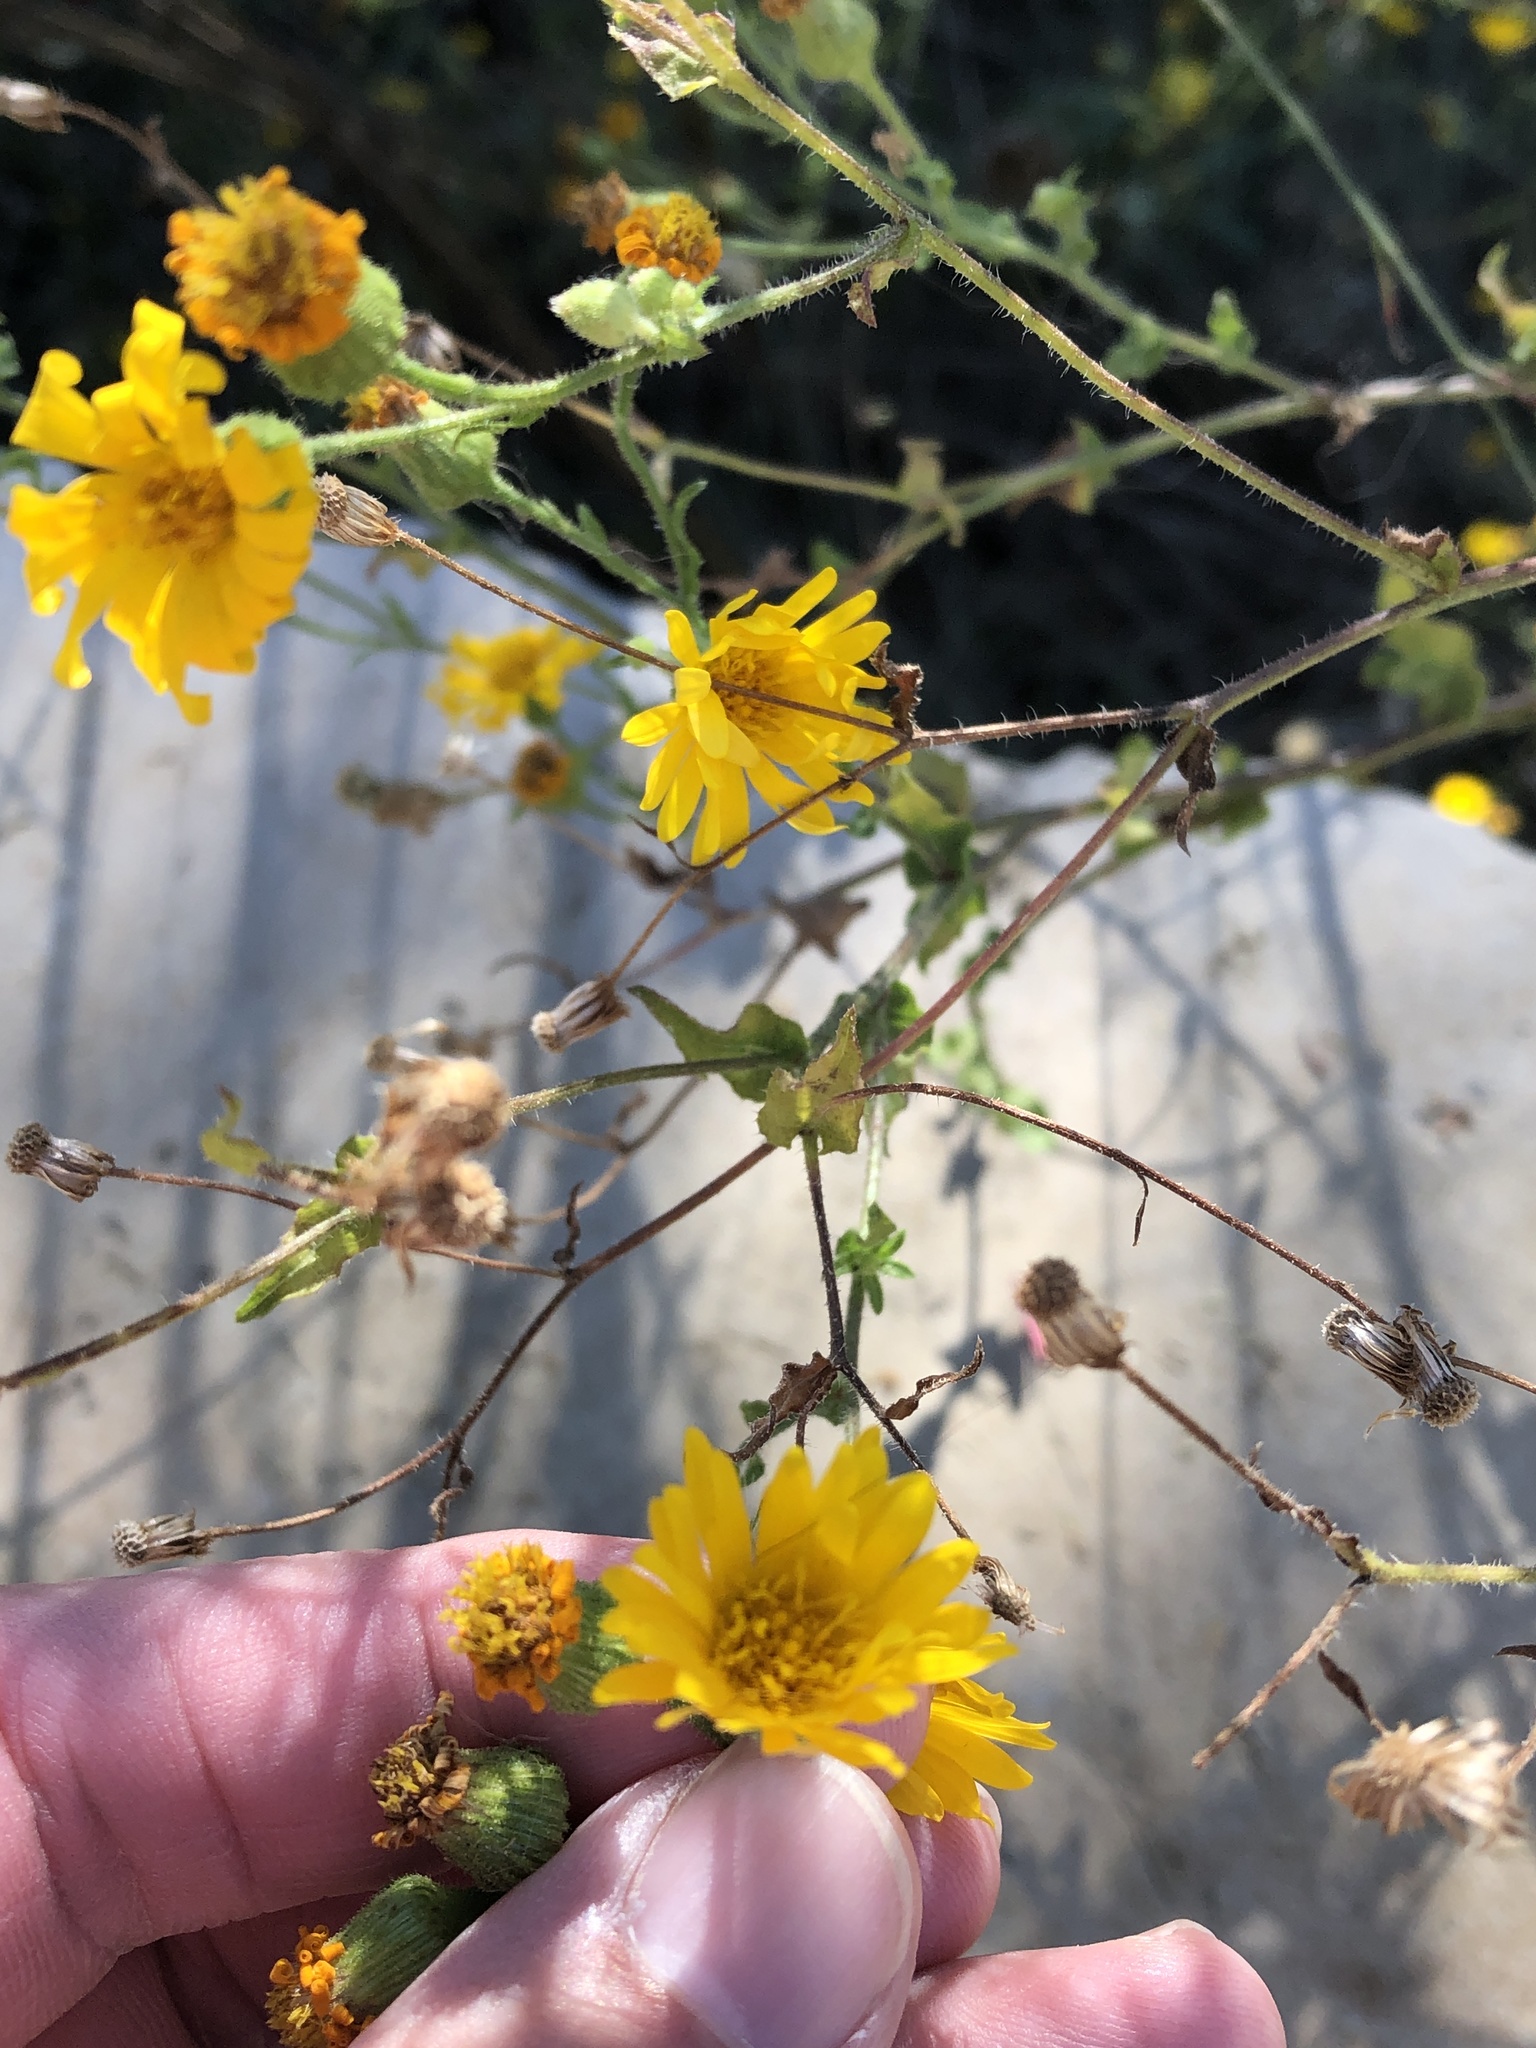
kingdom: Plantae
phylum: Tracheophyta
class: Magnoliopsida
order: Asterales
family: Asteraceae
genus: Heterotheca
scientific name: Heterotheca subaxillaris
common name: Camphorweed
